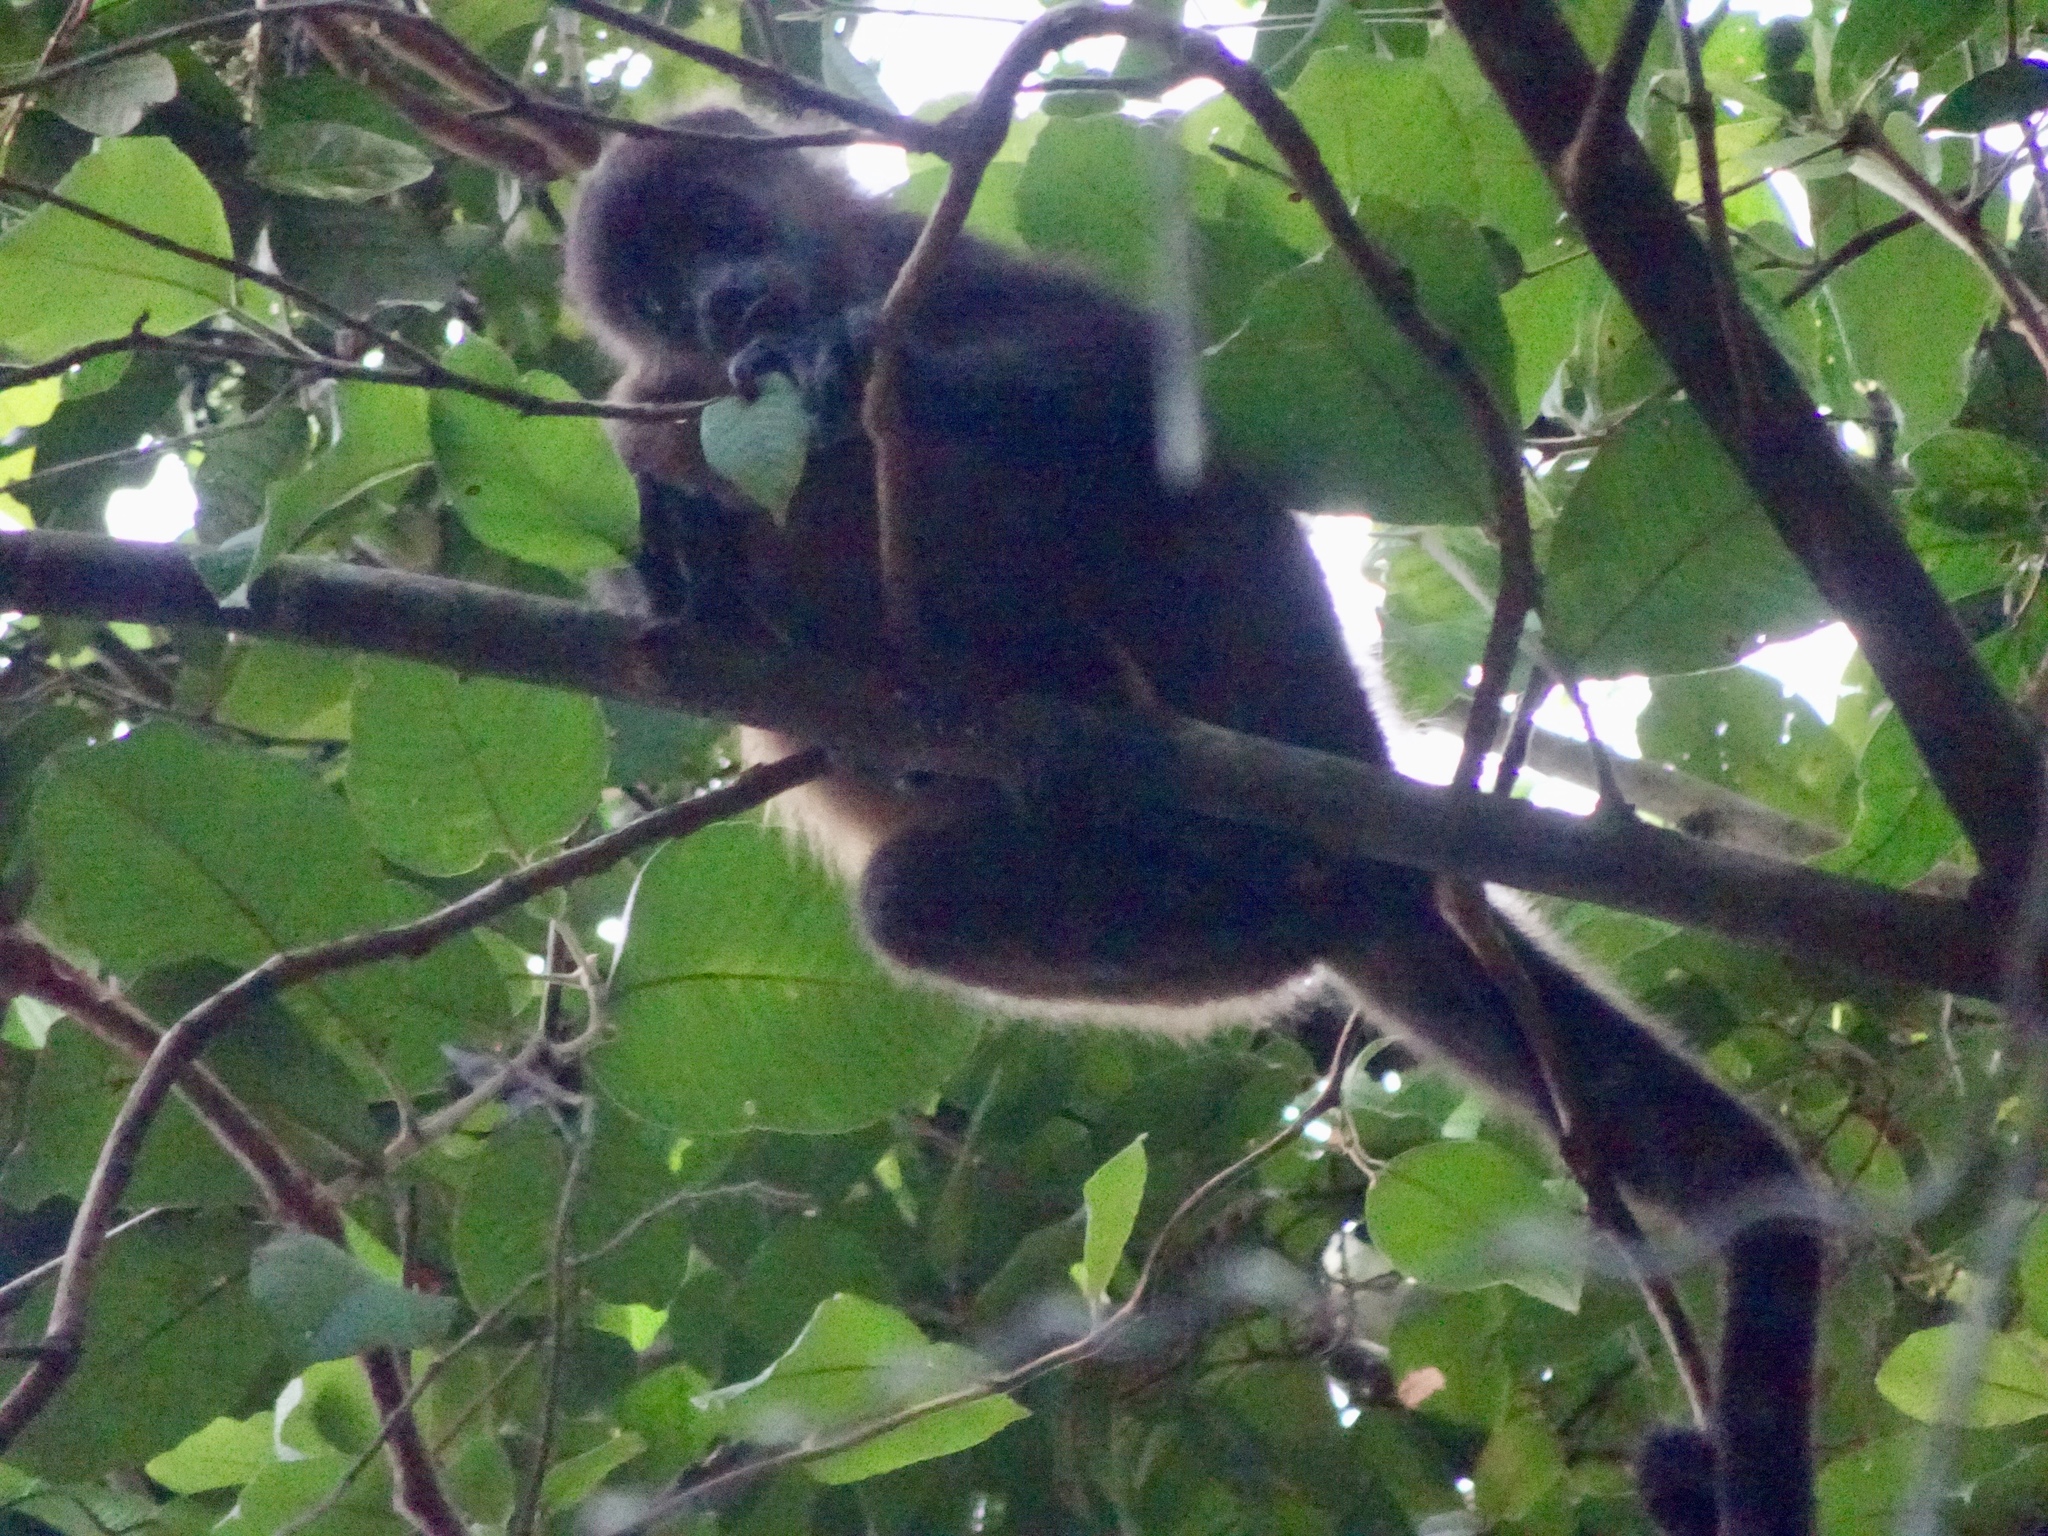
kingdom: Animalia
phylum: Chordata
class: Mammalia
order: Primates
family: Atelidae
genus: Alouatta
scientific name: Alouatta palliata
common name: Mantled howler
